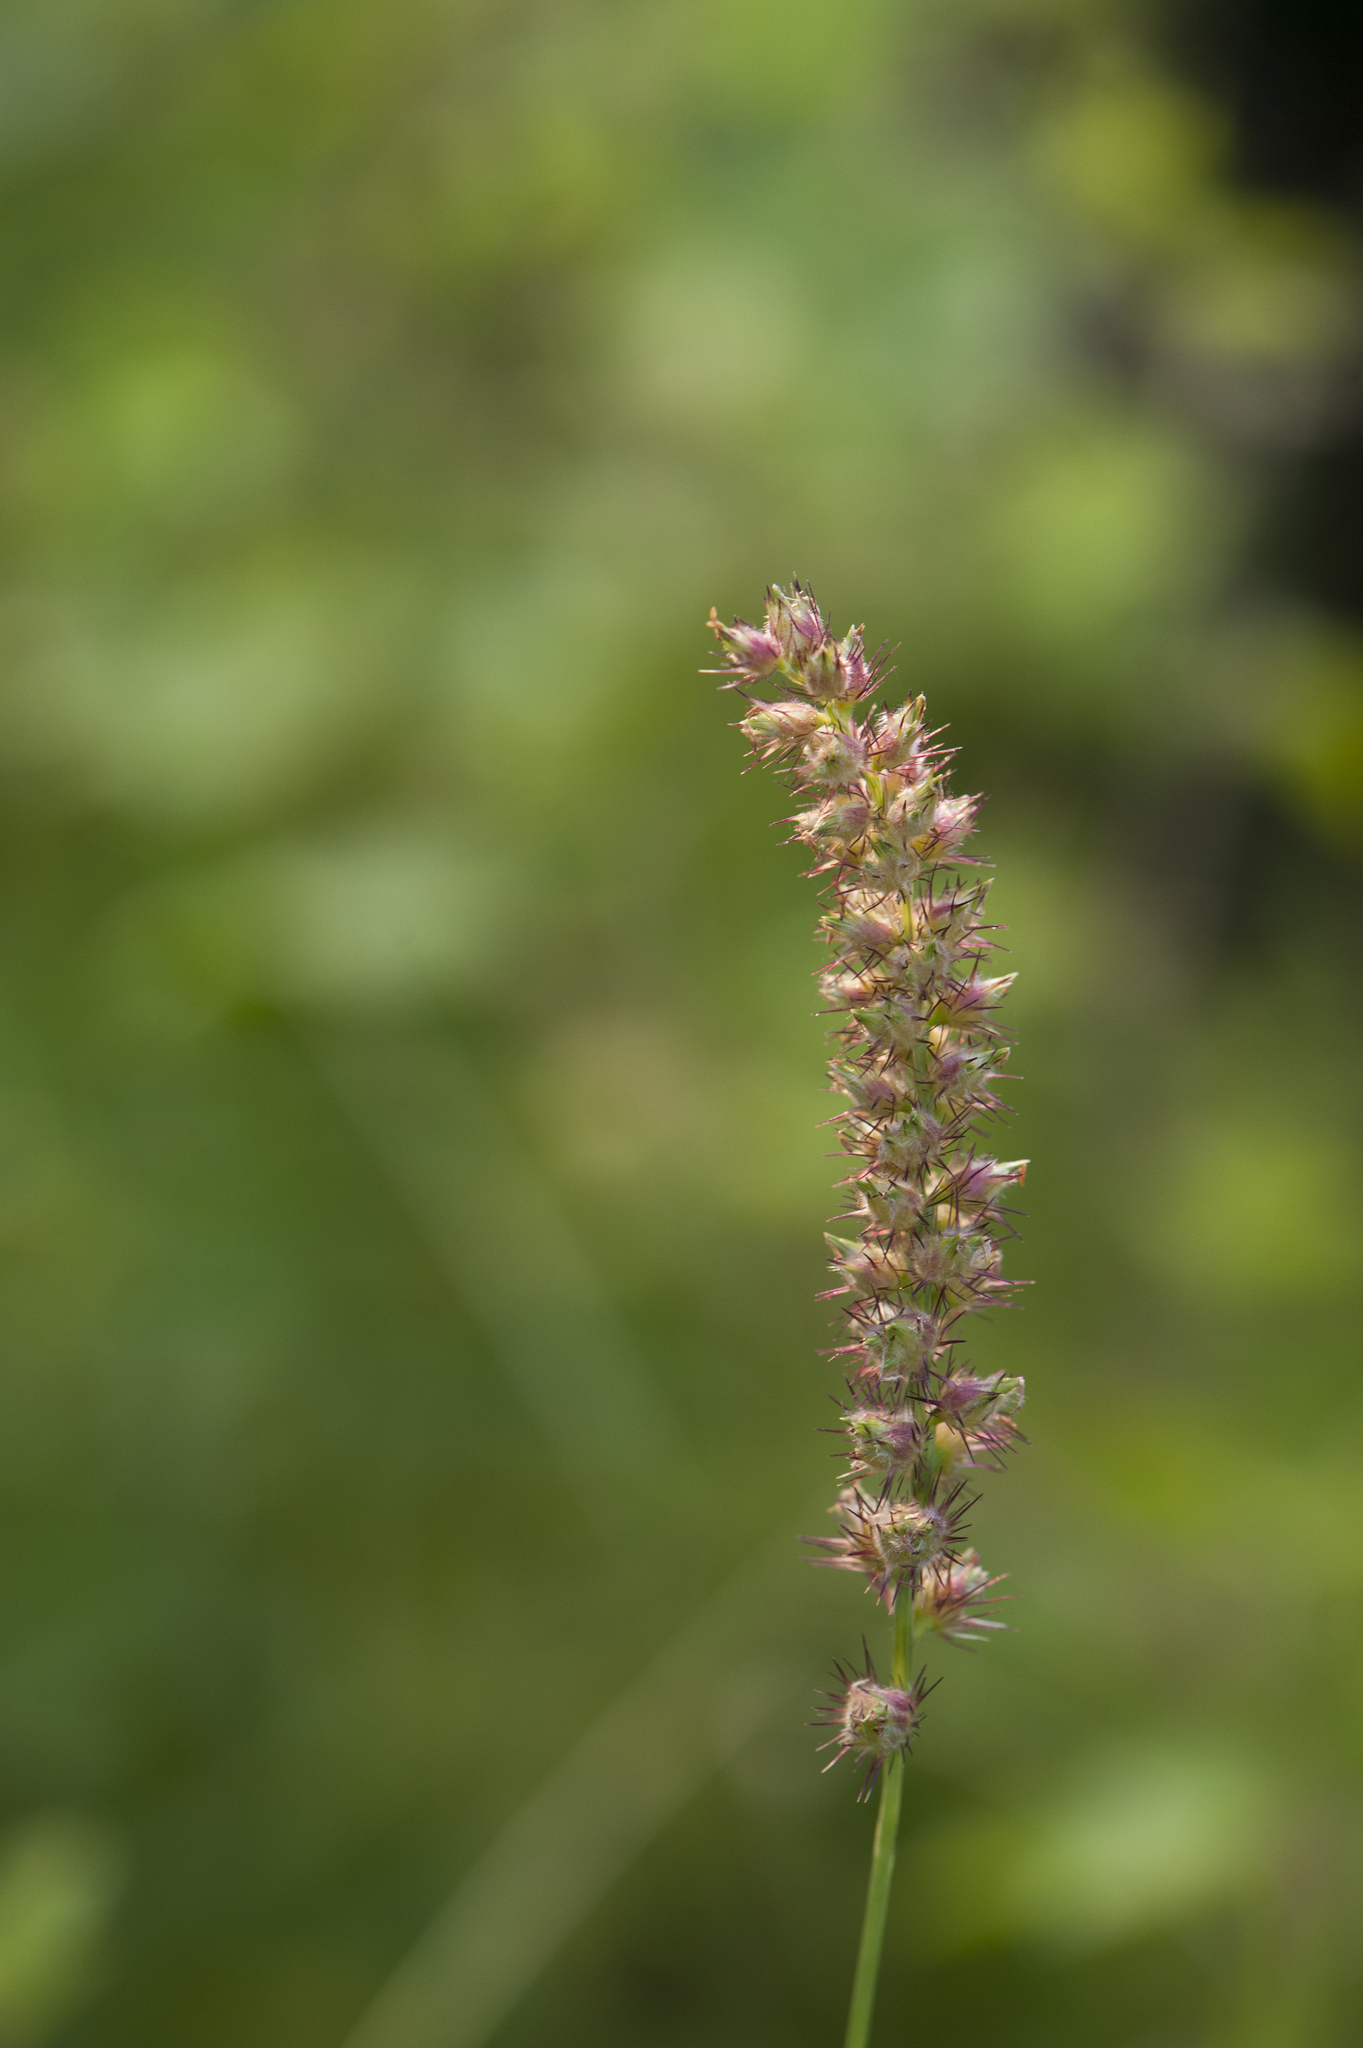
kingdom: Plantae
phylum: Tracheophyta
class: Liliopsida
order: Poales
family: Poaceae
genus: Cenchrus
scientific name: Cenchrus echinatus
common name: Southern sandbur
